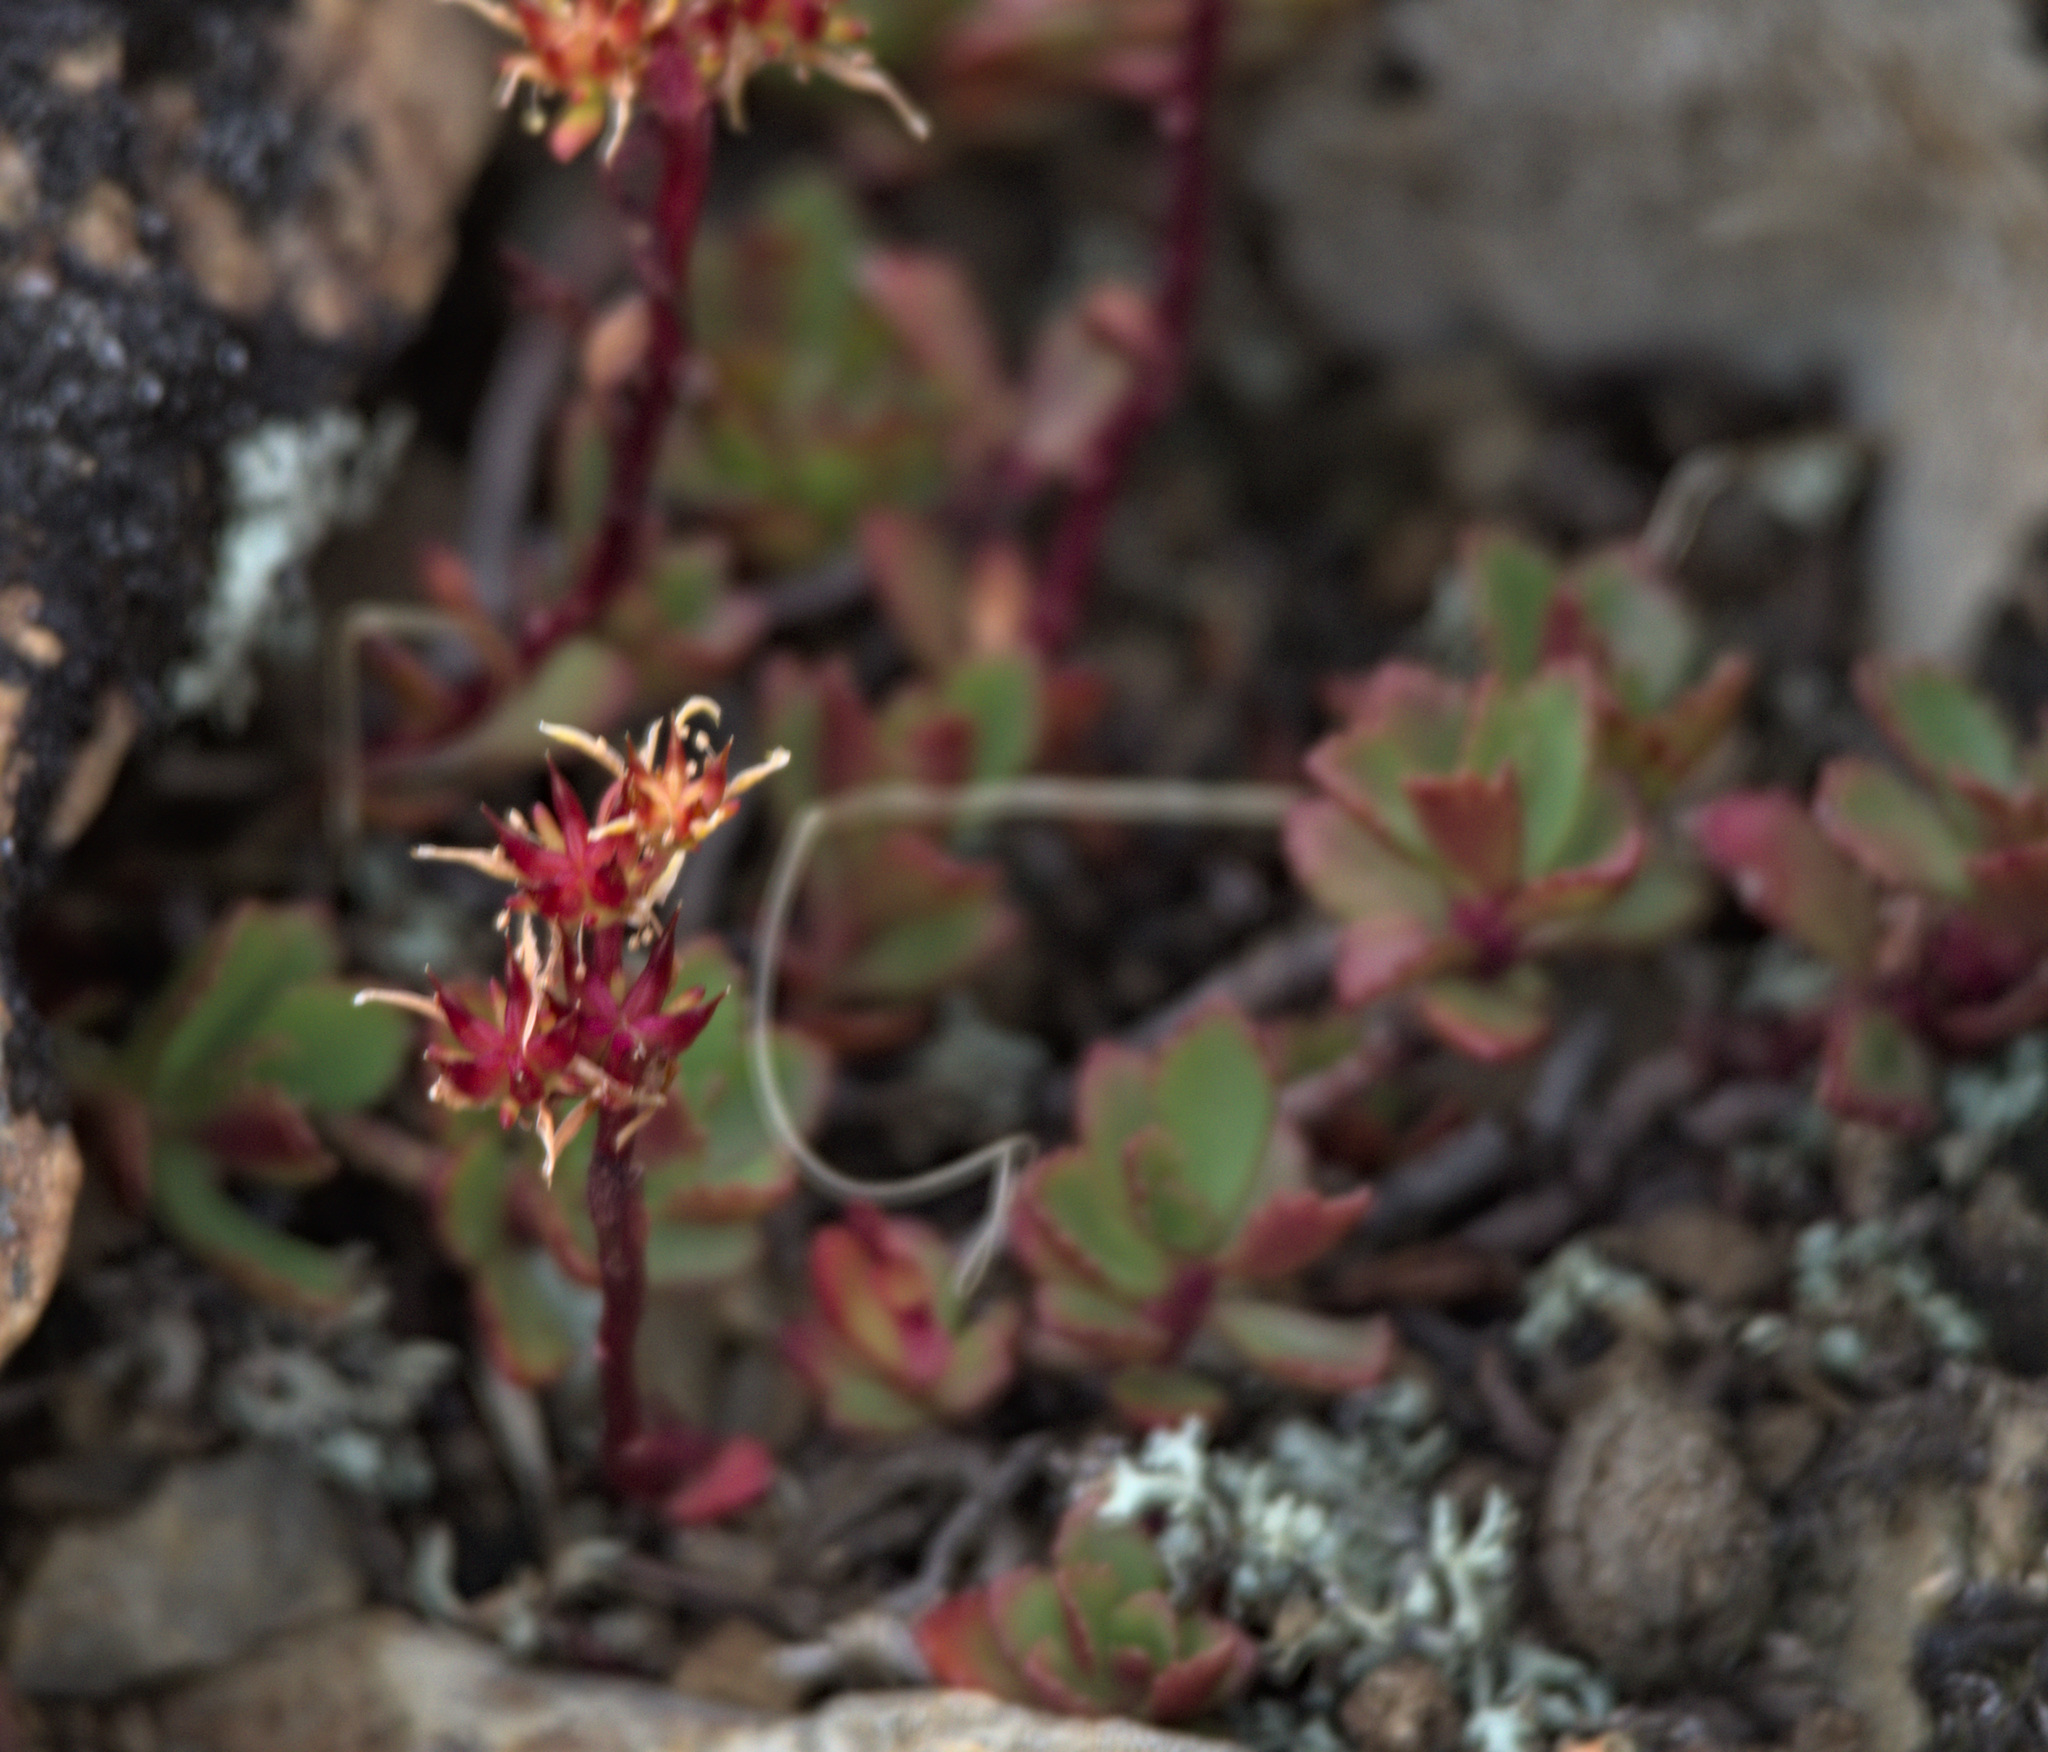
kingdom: Plantae
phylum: Tracheophyta
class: Magnoliopsida
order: Saxifragales
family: Crassulaceae
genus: Phedimus
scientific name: Phedimus hybridus
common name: Hybrid stonecrop
